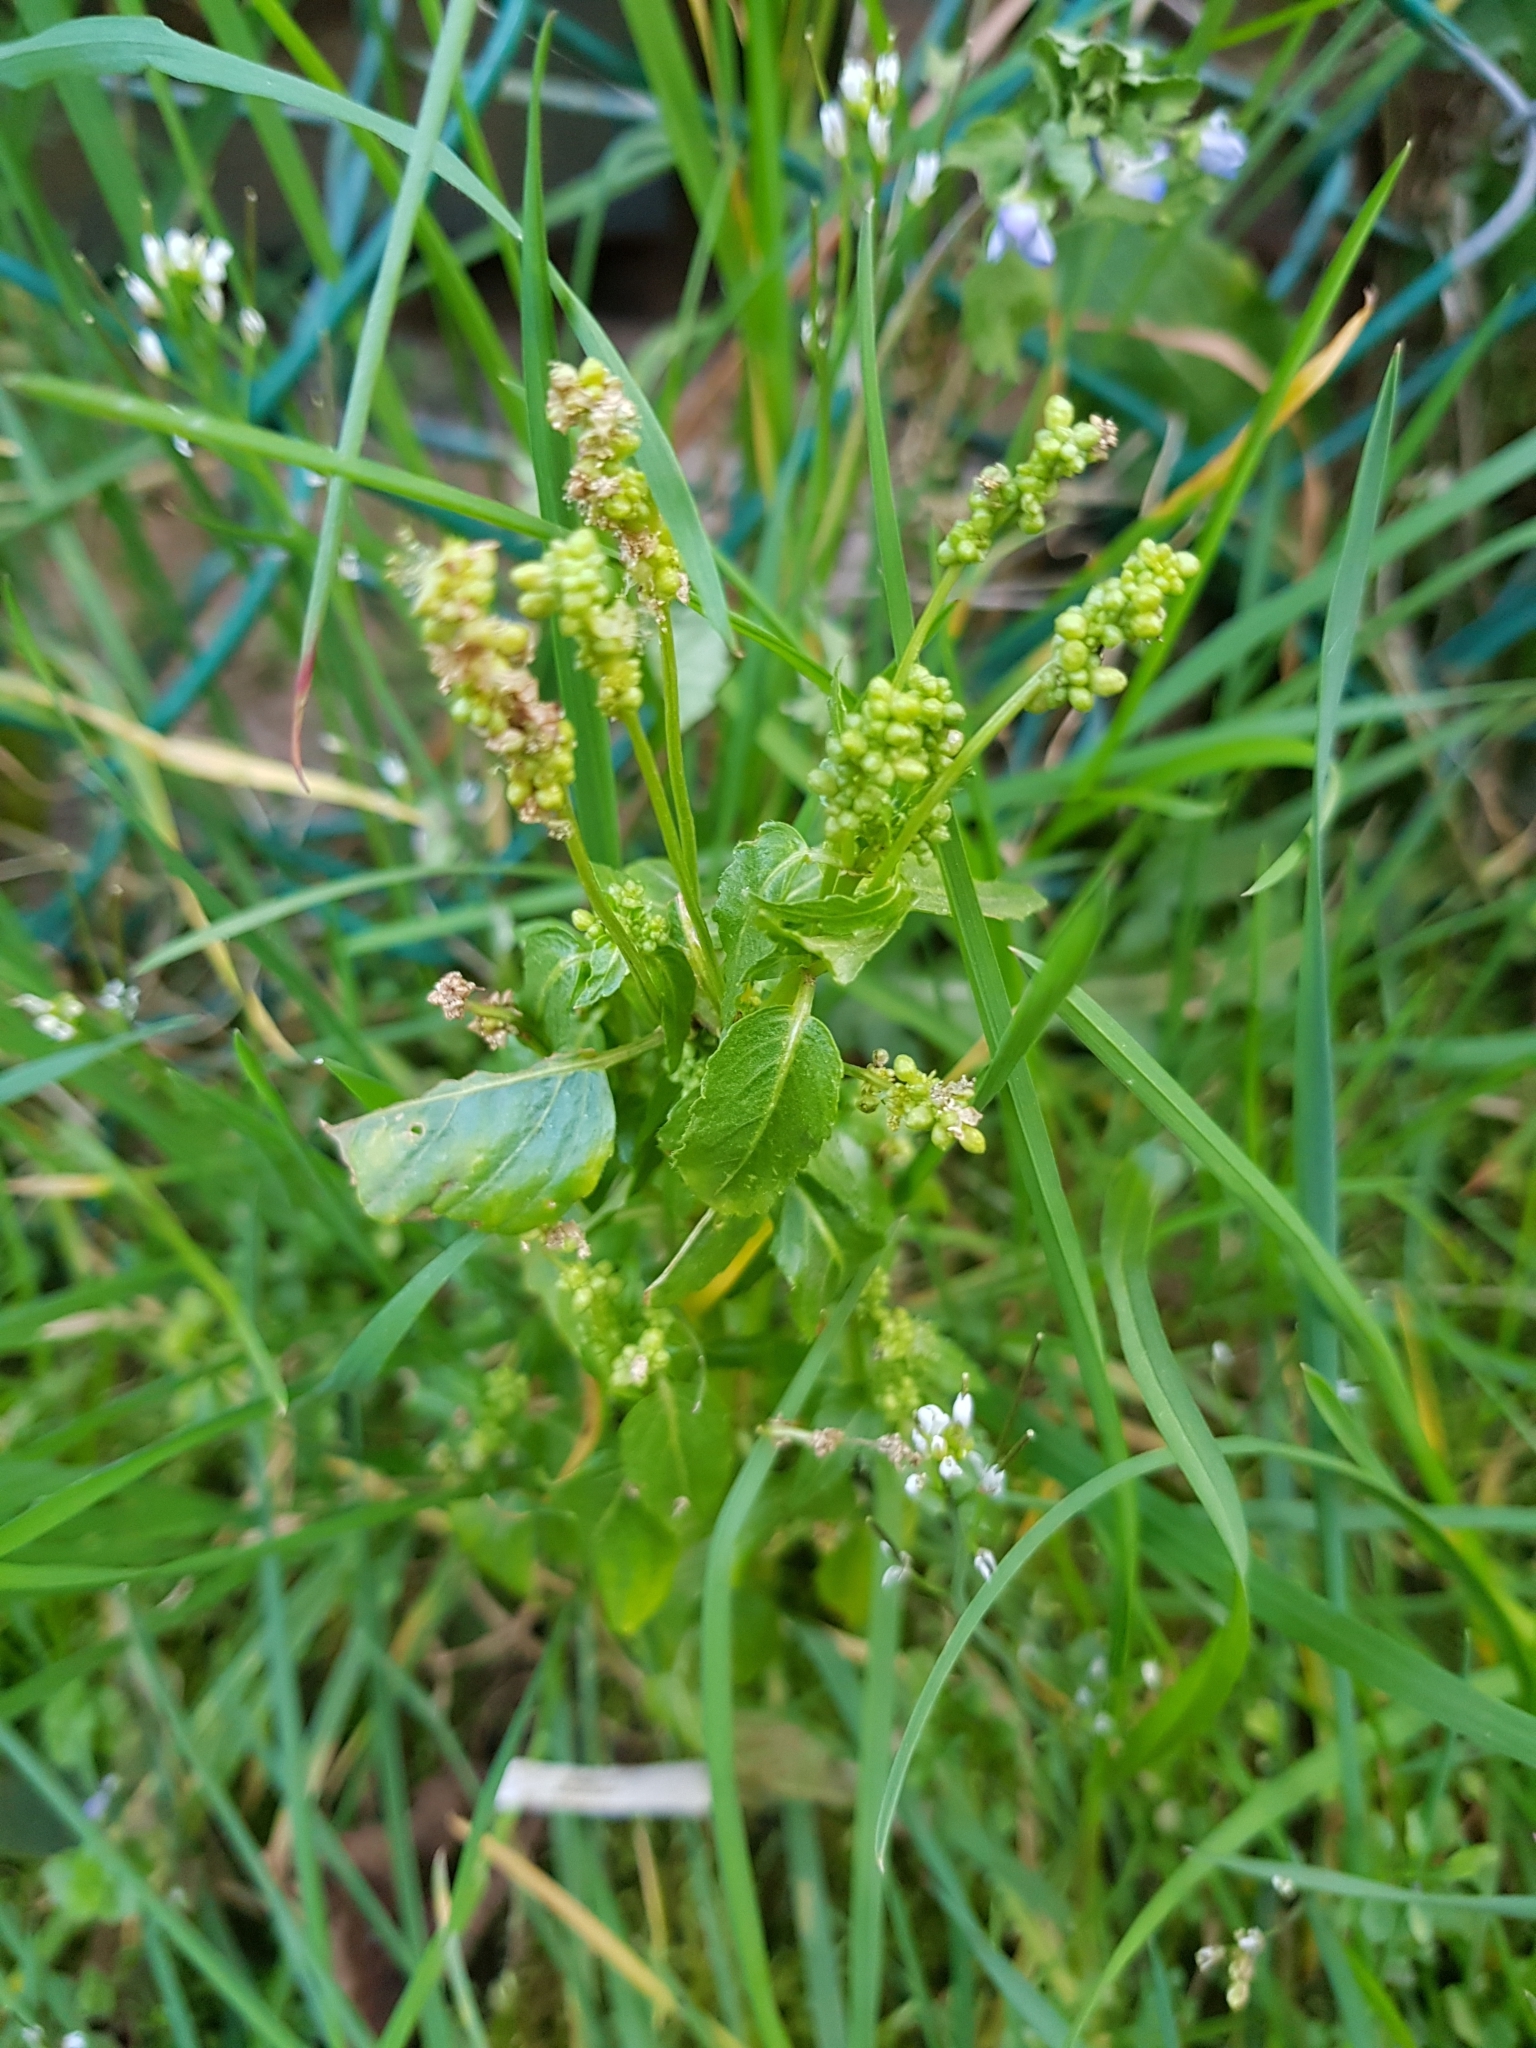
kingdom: Plantae
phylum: Tracheophyta
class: Magnoliopsida
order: Malpighiales
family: Euphorbiaceae
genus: Mercurialis
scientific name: Mercurialis annua
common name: Annual mercury
